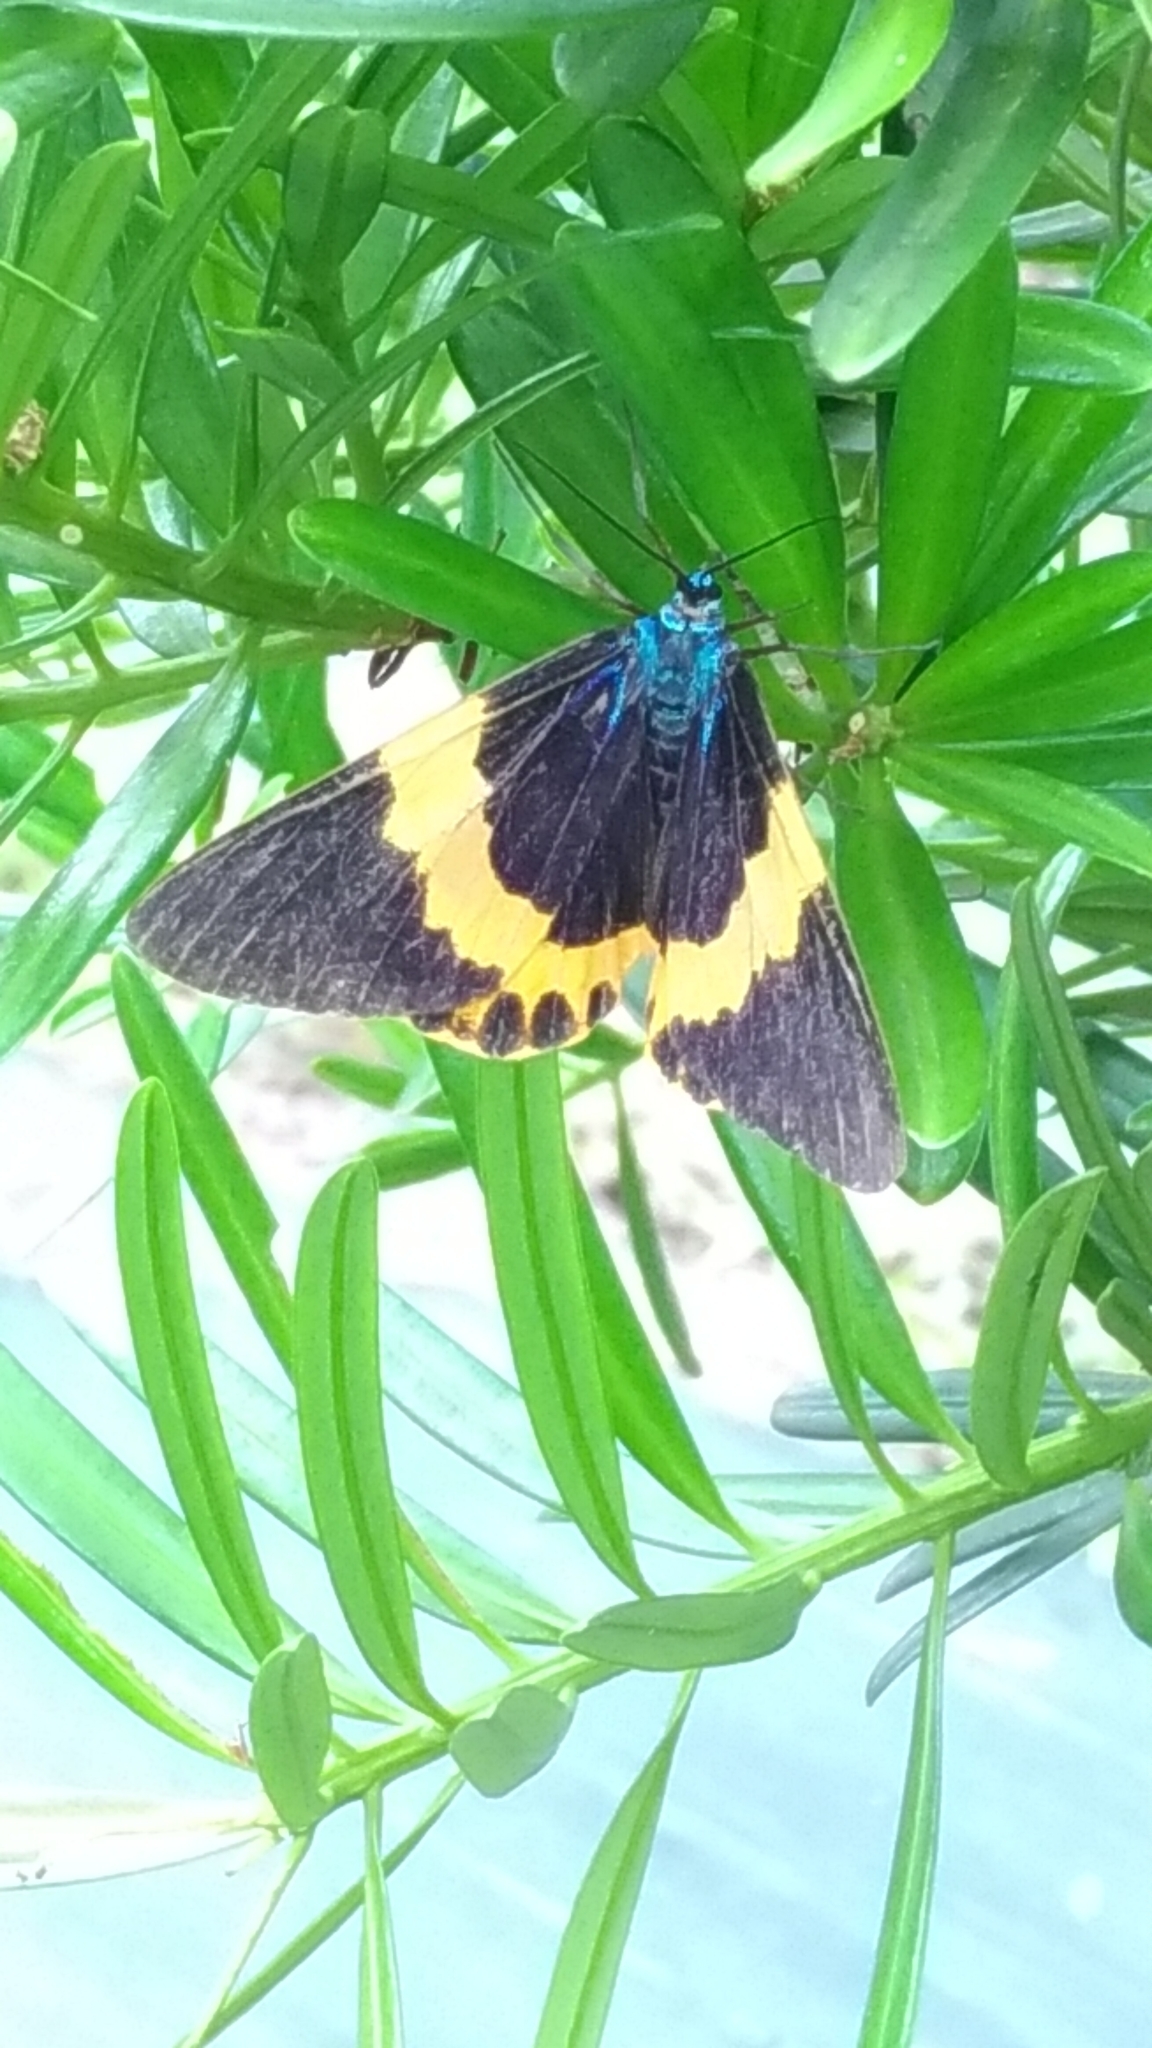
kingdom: Animalia
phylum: Arthropoda
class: Insecta
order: Lepidoptera
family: Geometridae
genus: Milionia
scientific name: Milionia basalis
